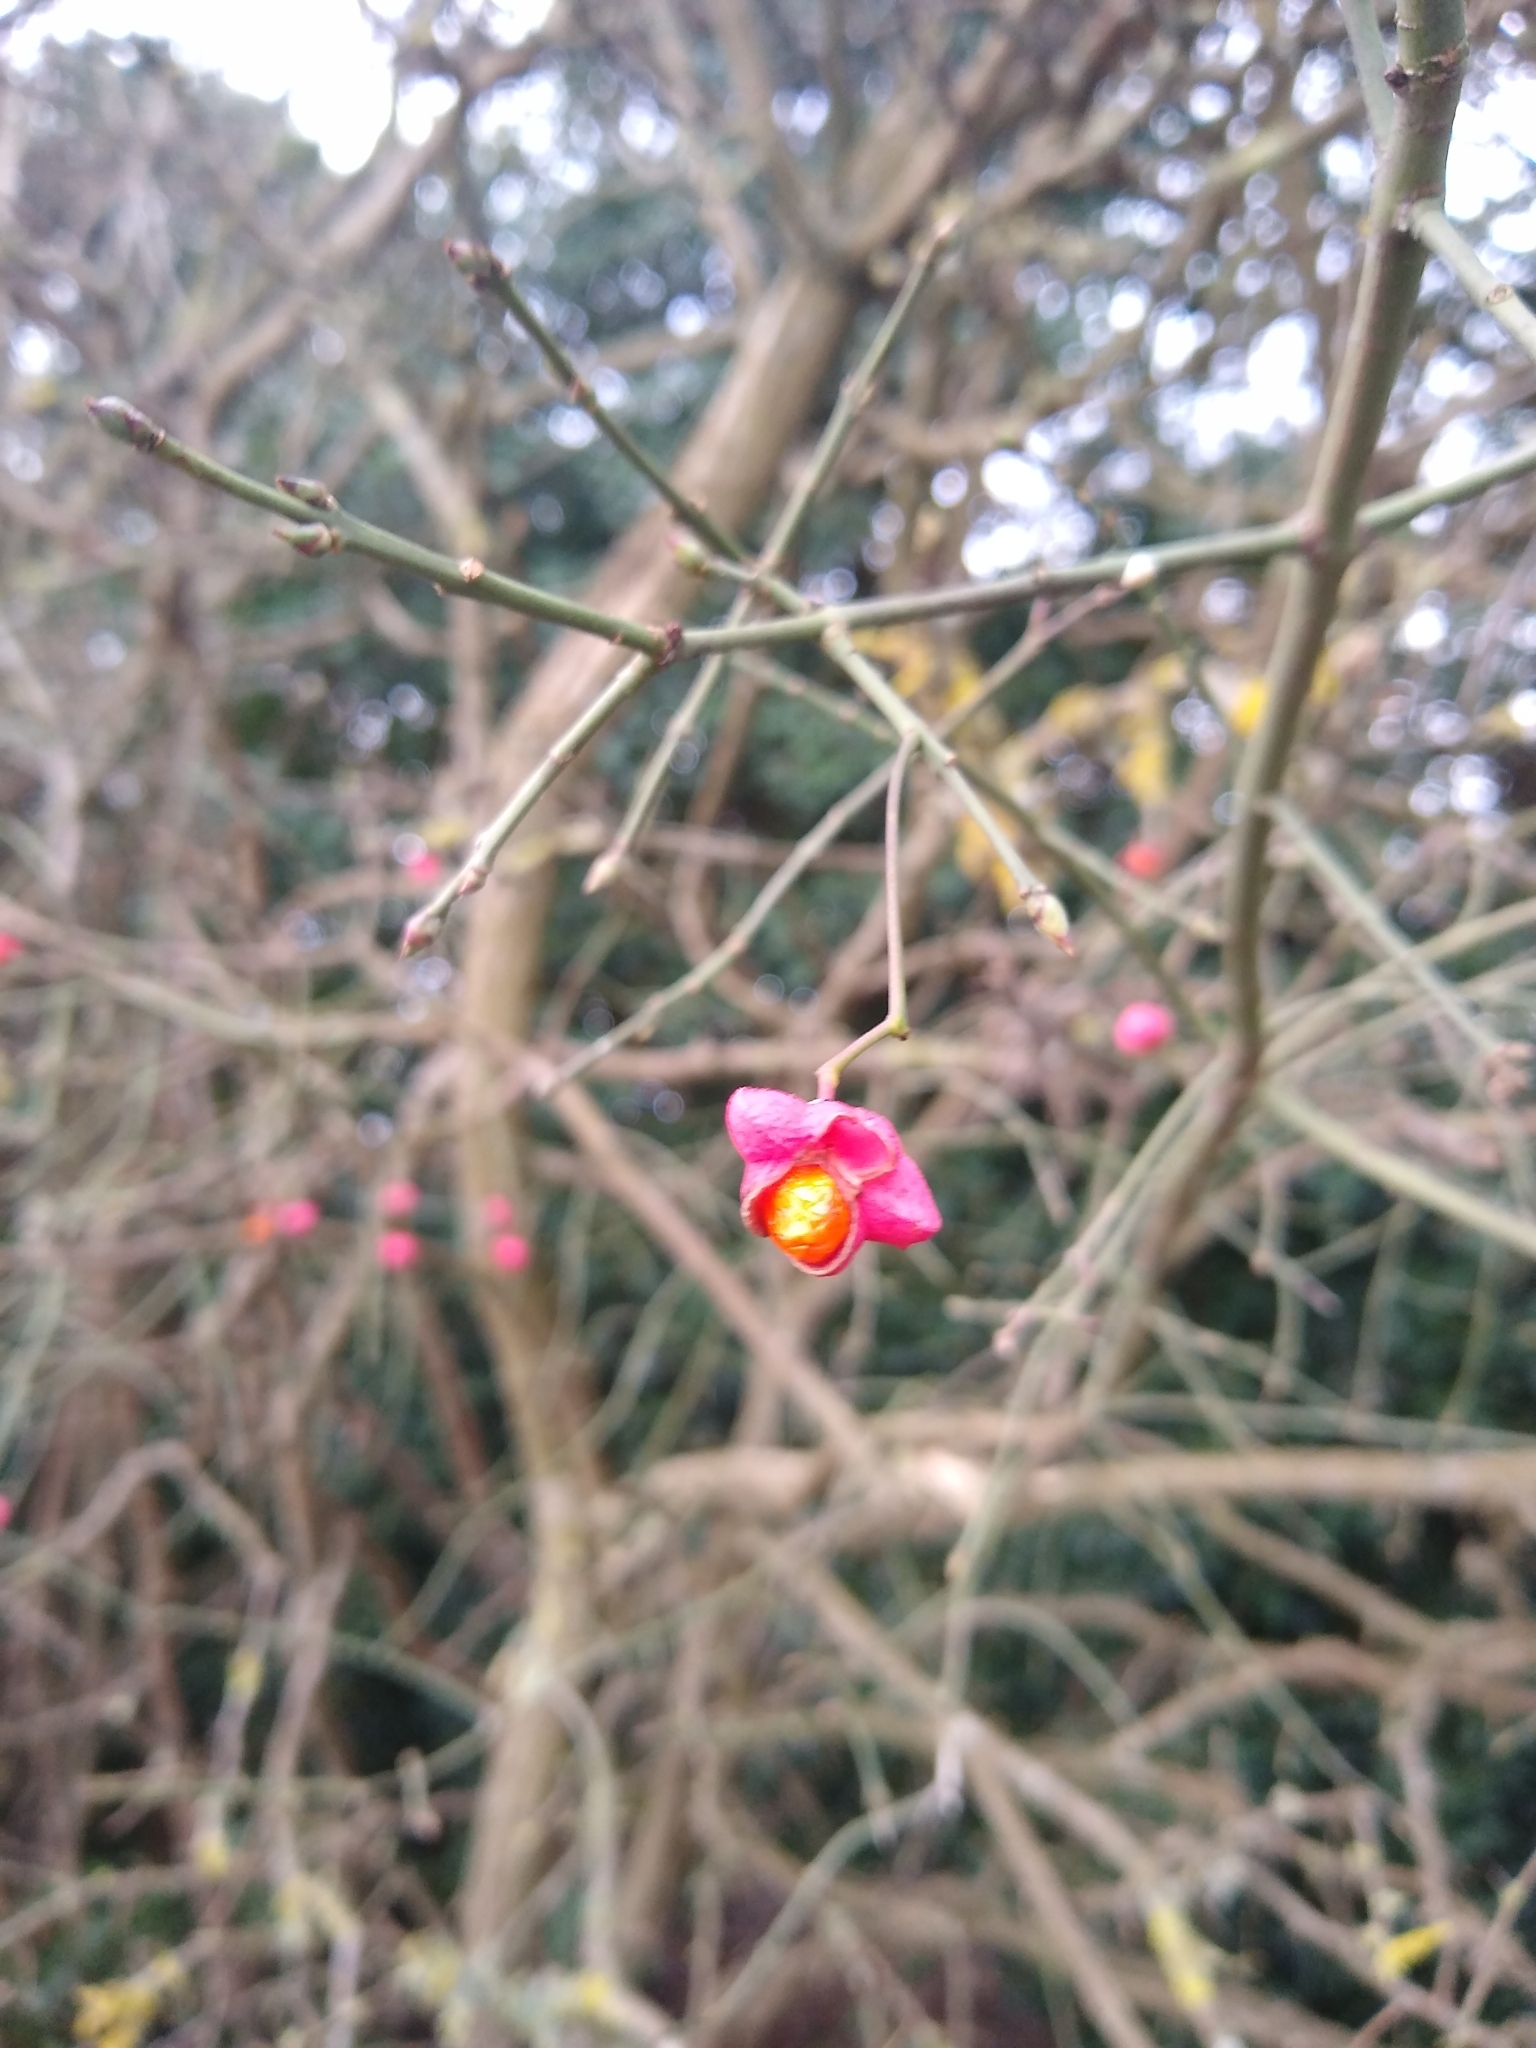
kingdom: Plantae
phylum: Tracheophyta
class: Magnoliopsida
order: Celastrales
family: Celastraceae
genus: Euonymus
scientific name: Euonymus europaeus
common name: Spindle
